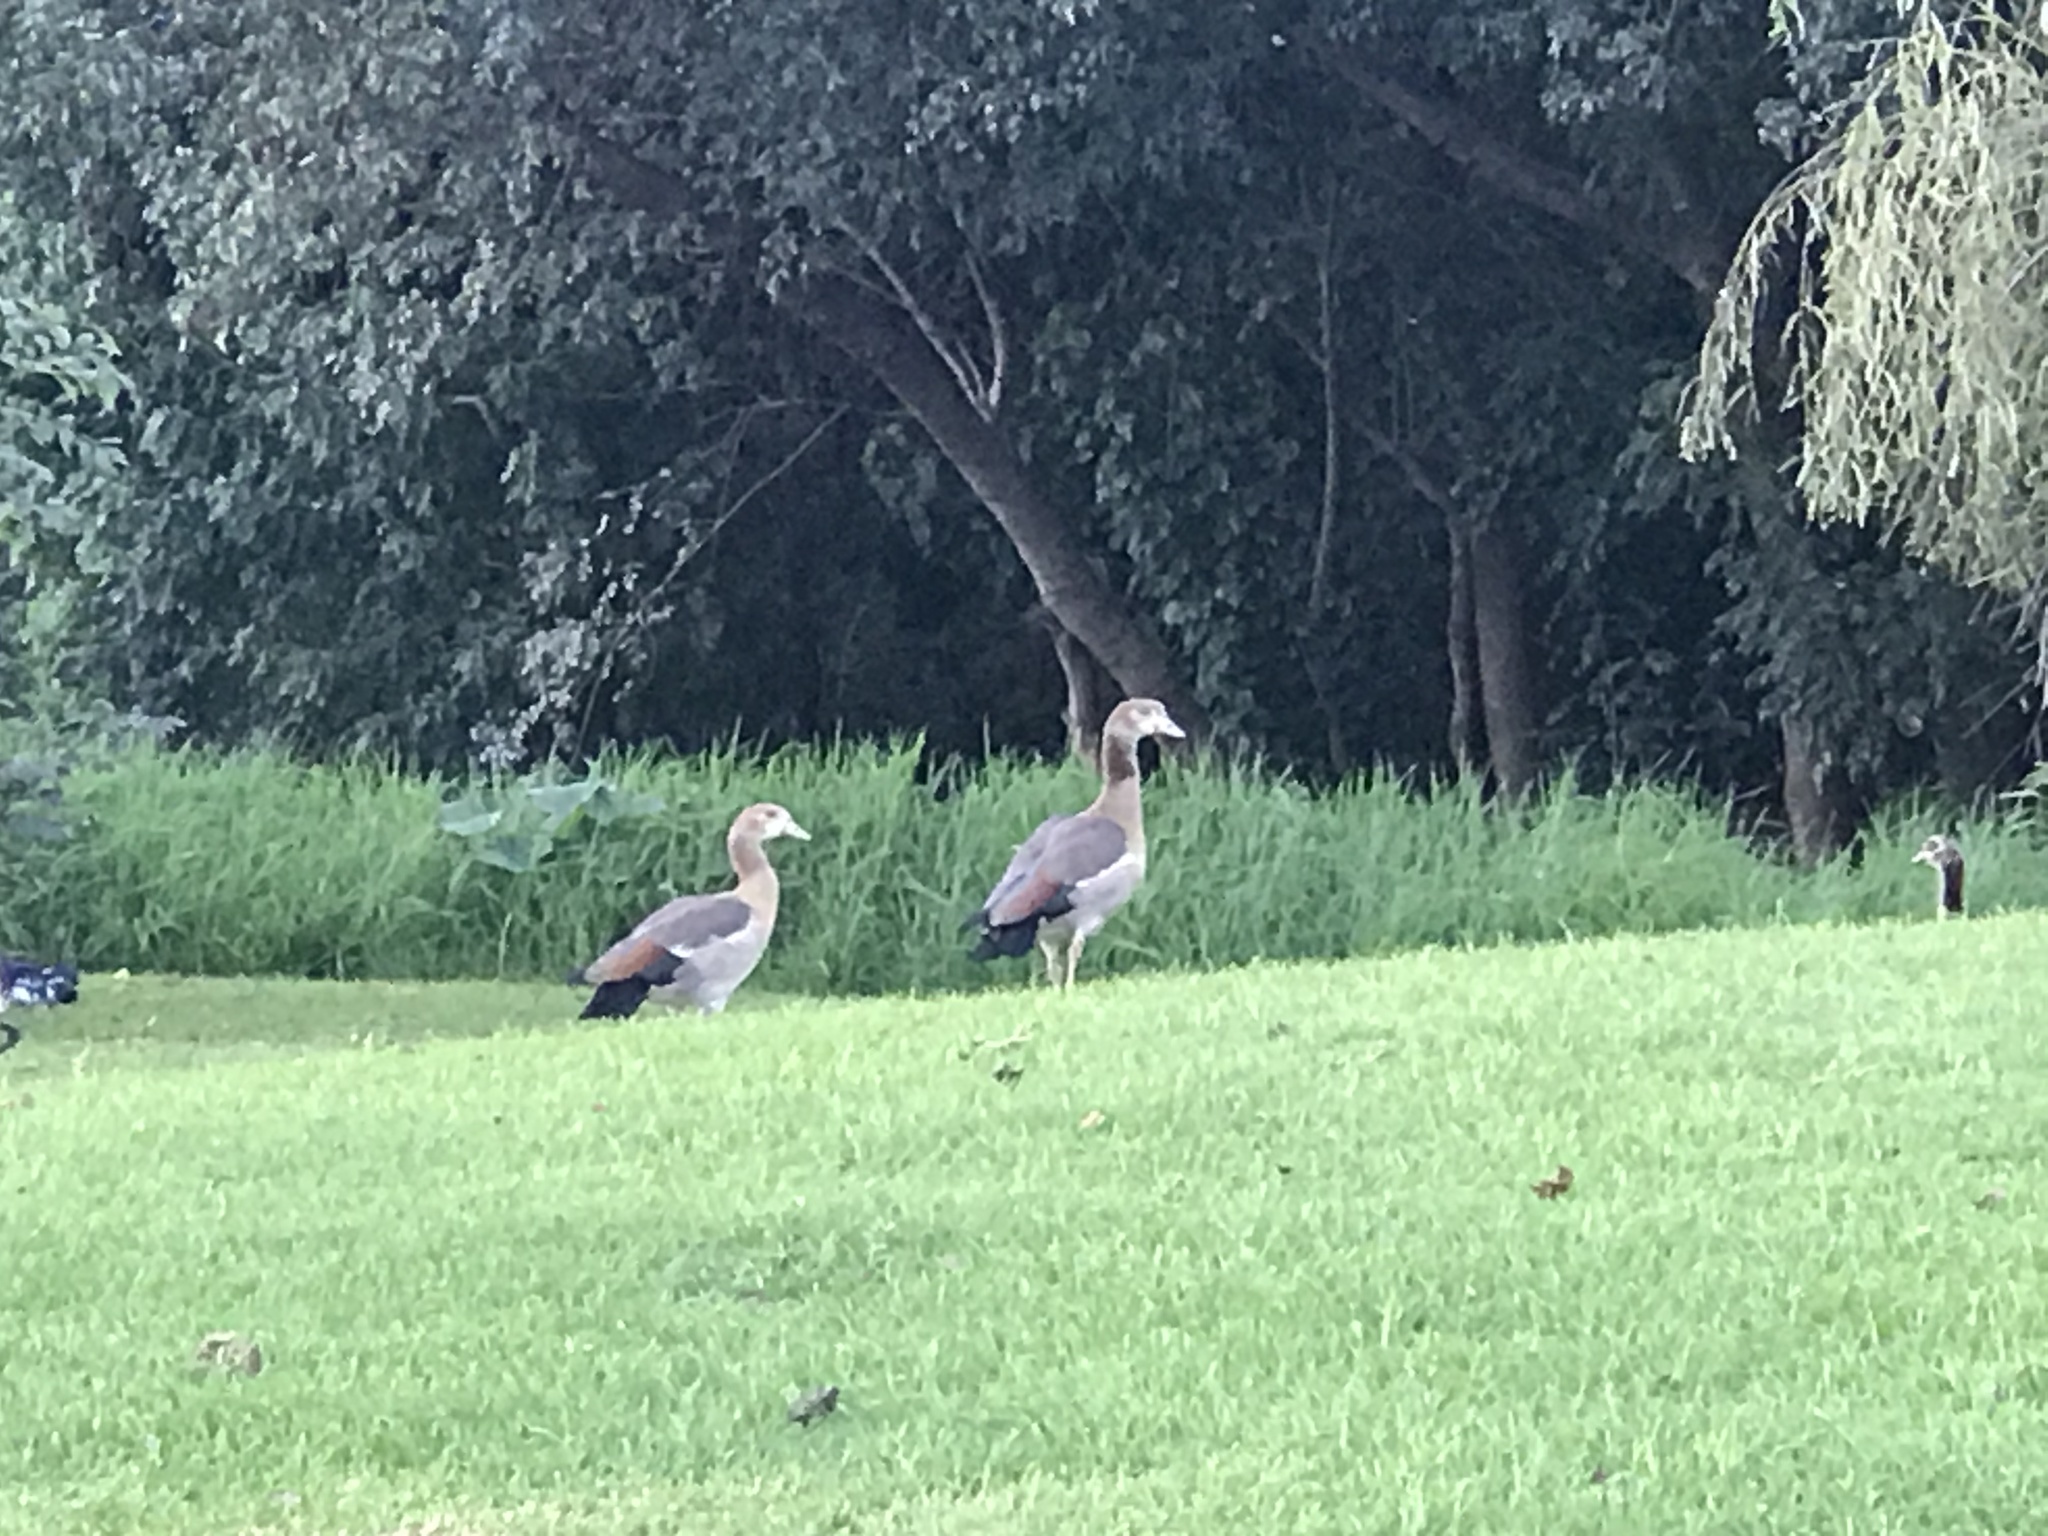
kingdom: Animalia
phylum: Chordata
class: Aves
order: Anseriformes
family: Anatidae
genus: Alopochen
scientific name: Alopochen aegyptiaca
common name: Egyptian goose
